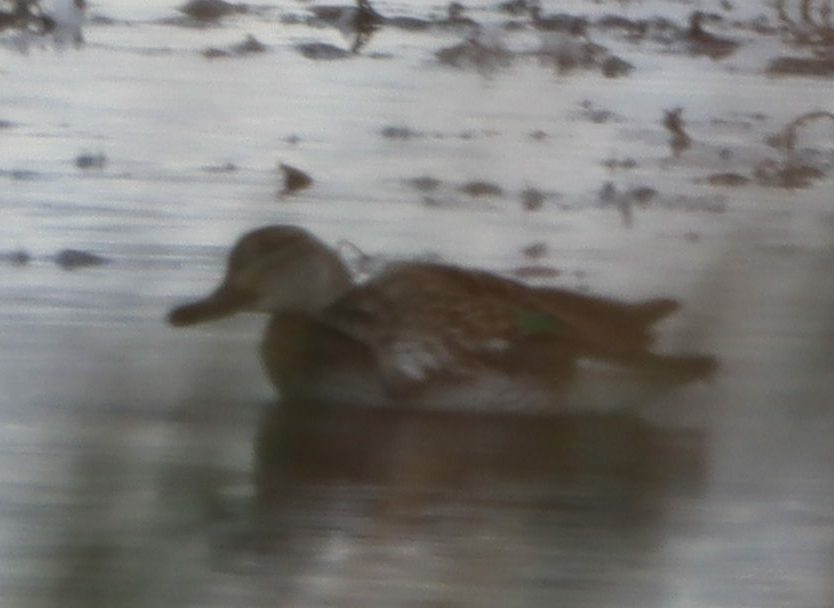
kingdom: Animalia
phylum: Chordata
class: Aves
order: Anseriformes
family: Anatidae
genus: Anas
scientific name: Anas crecca
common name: Eurasian teal
